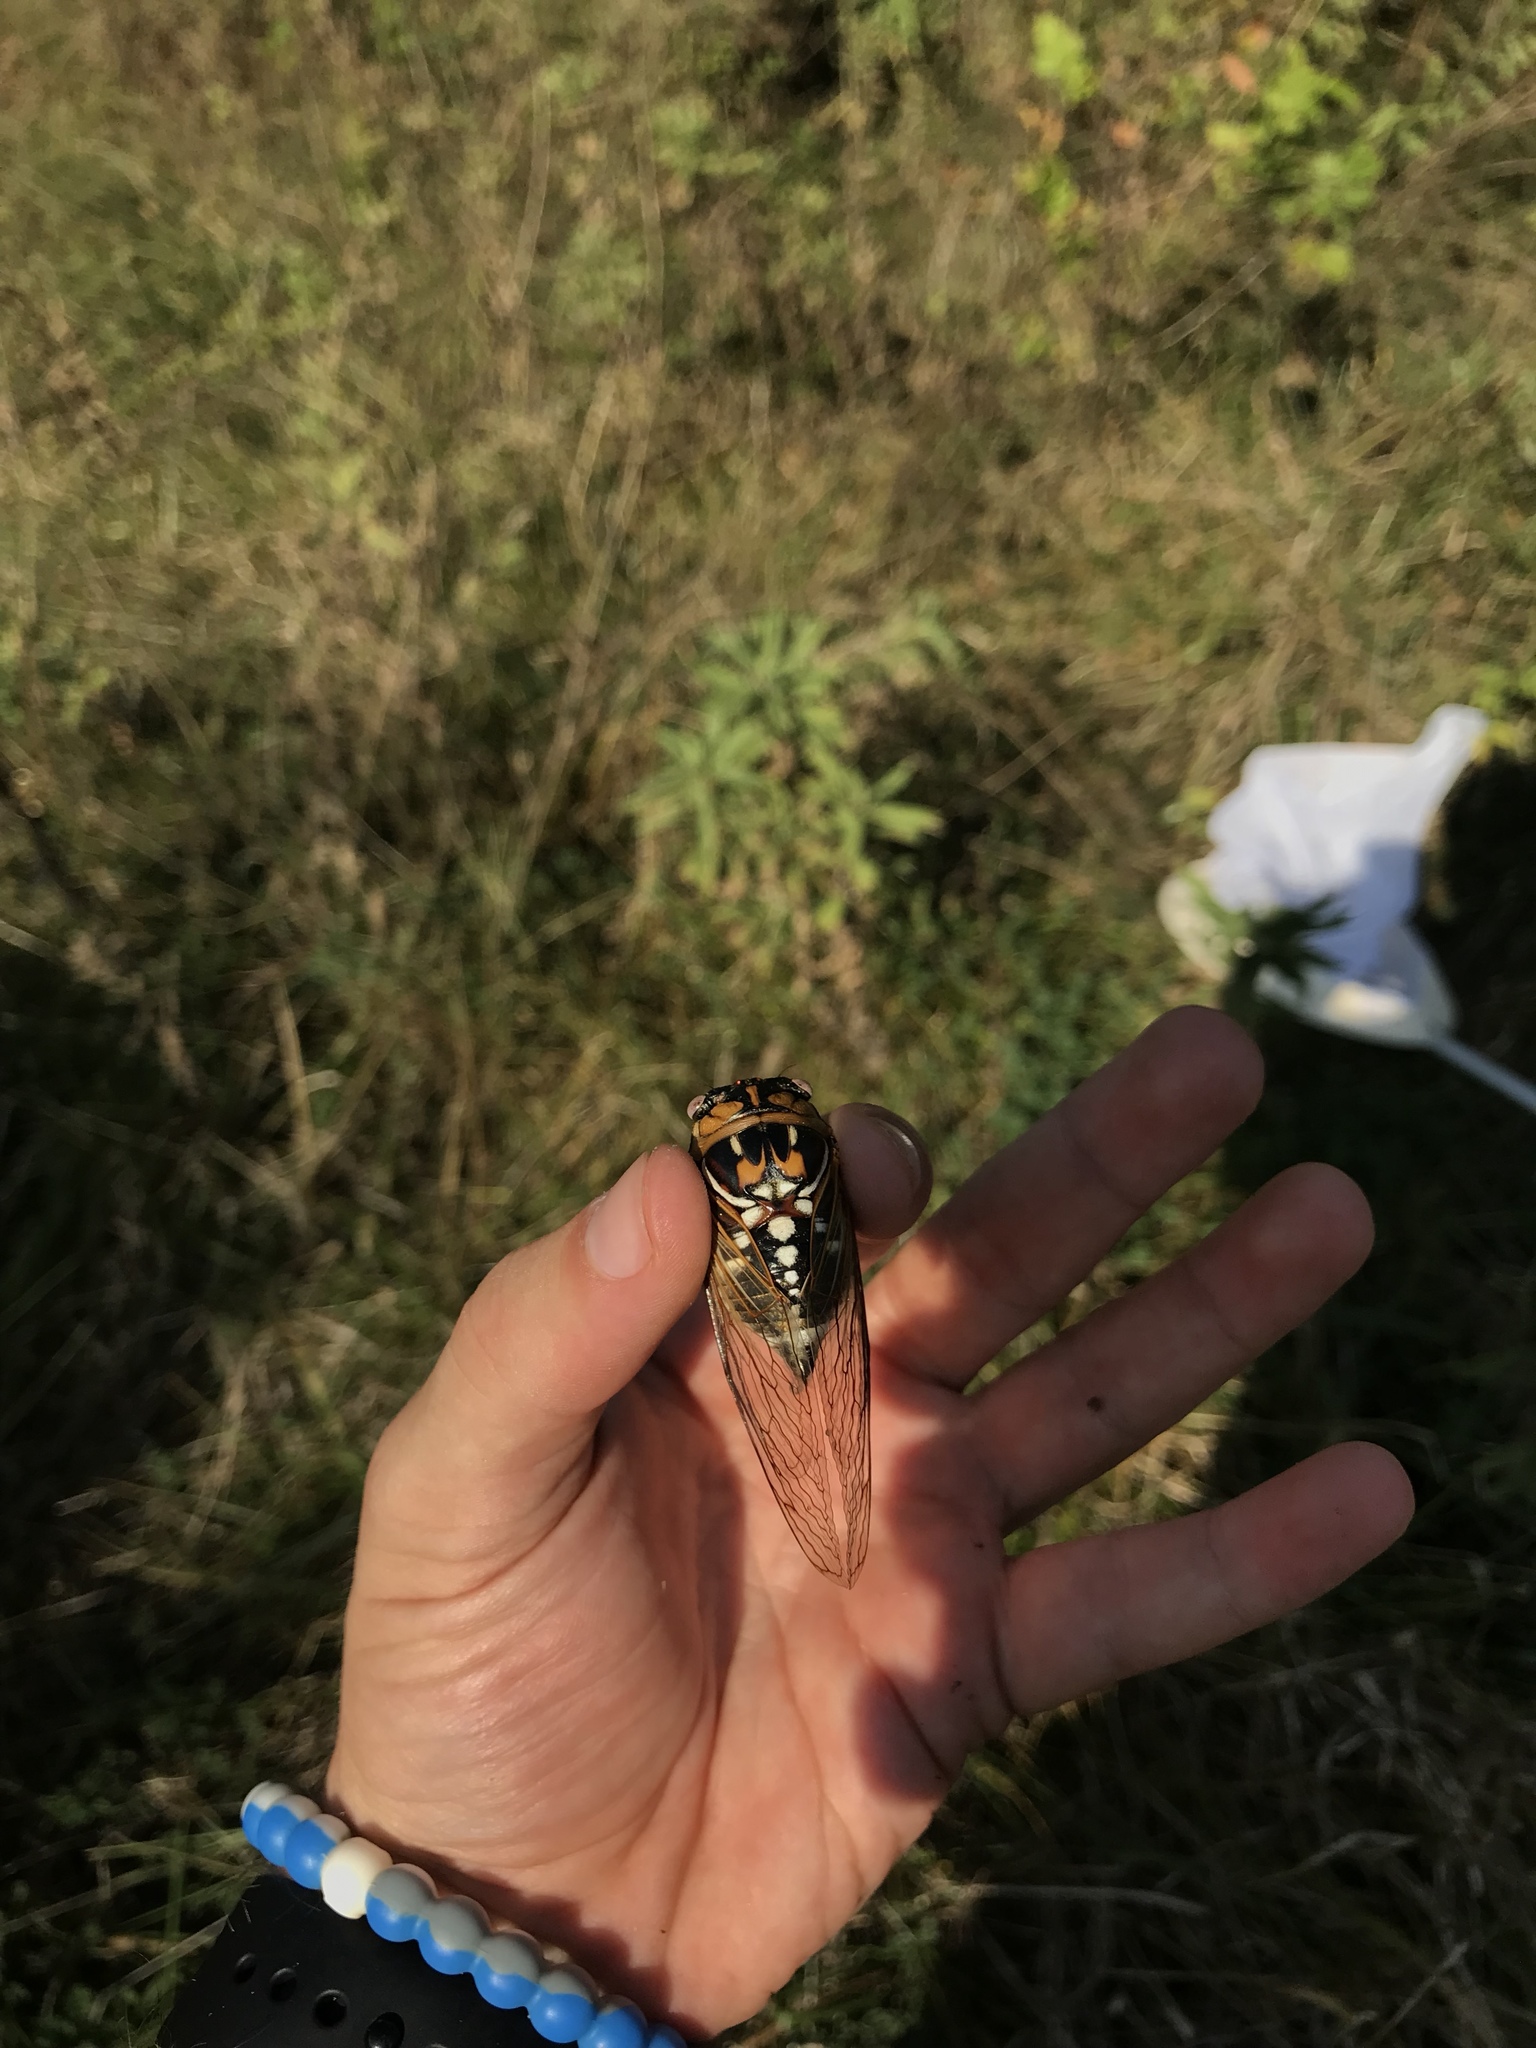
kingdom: Animalia
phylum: Arthropoda
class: Insecta
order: Hemiptera
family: Cicadidae
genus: Megatibicen
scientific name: Megatibicen dorsatus
